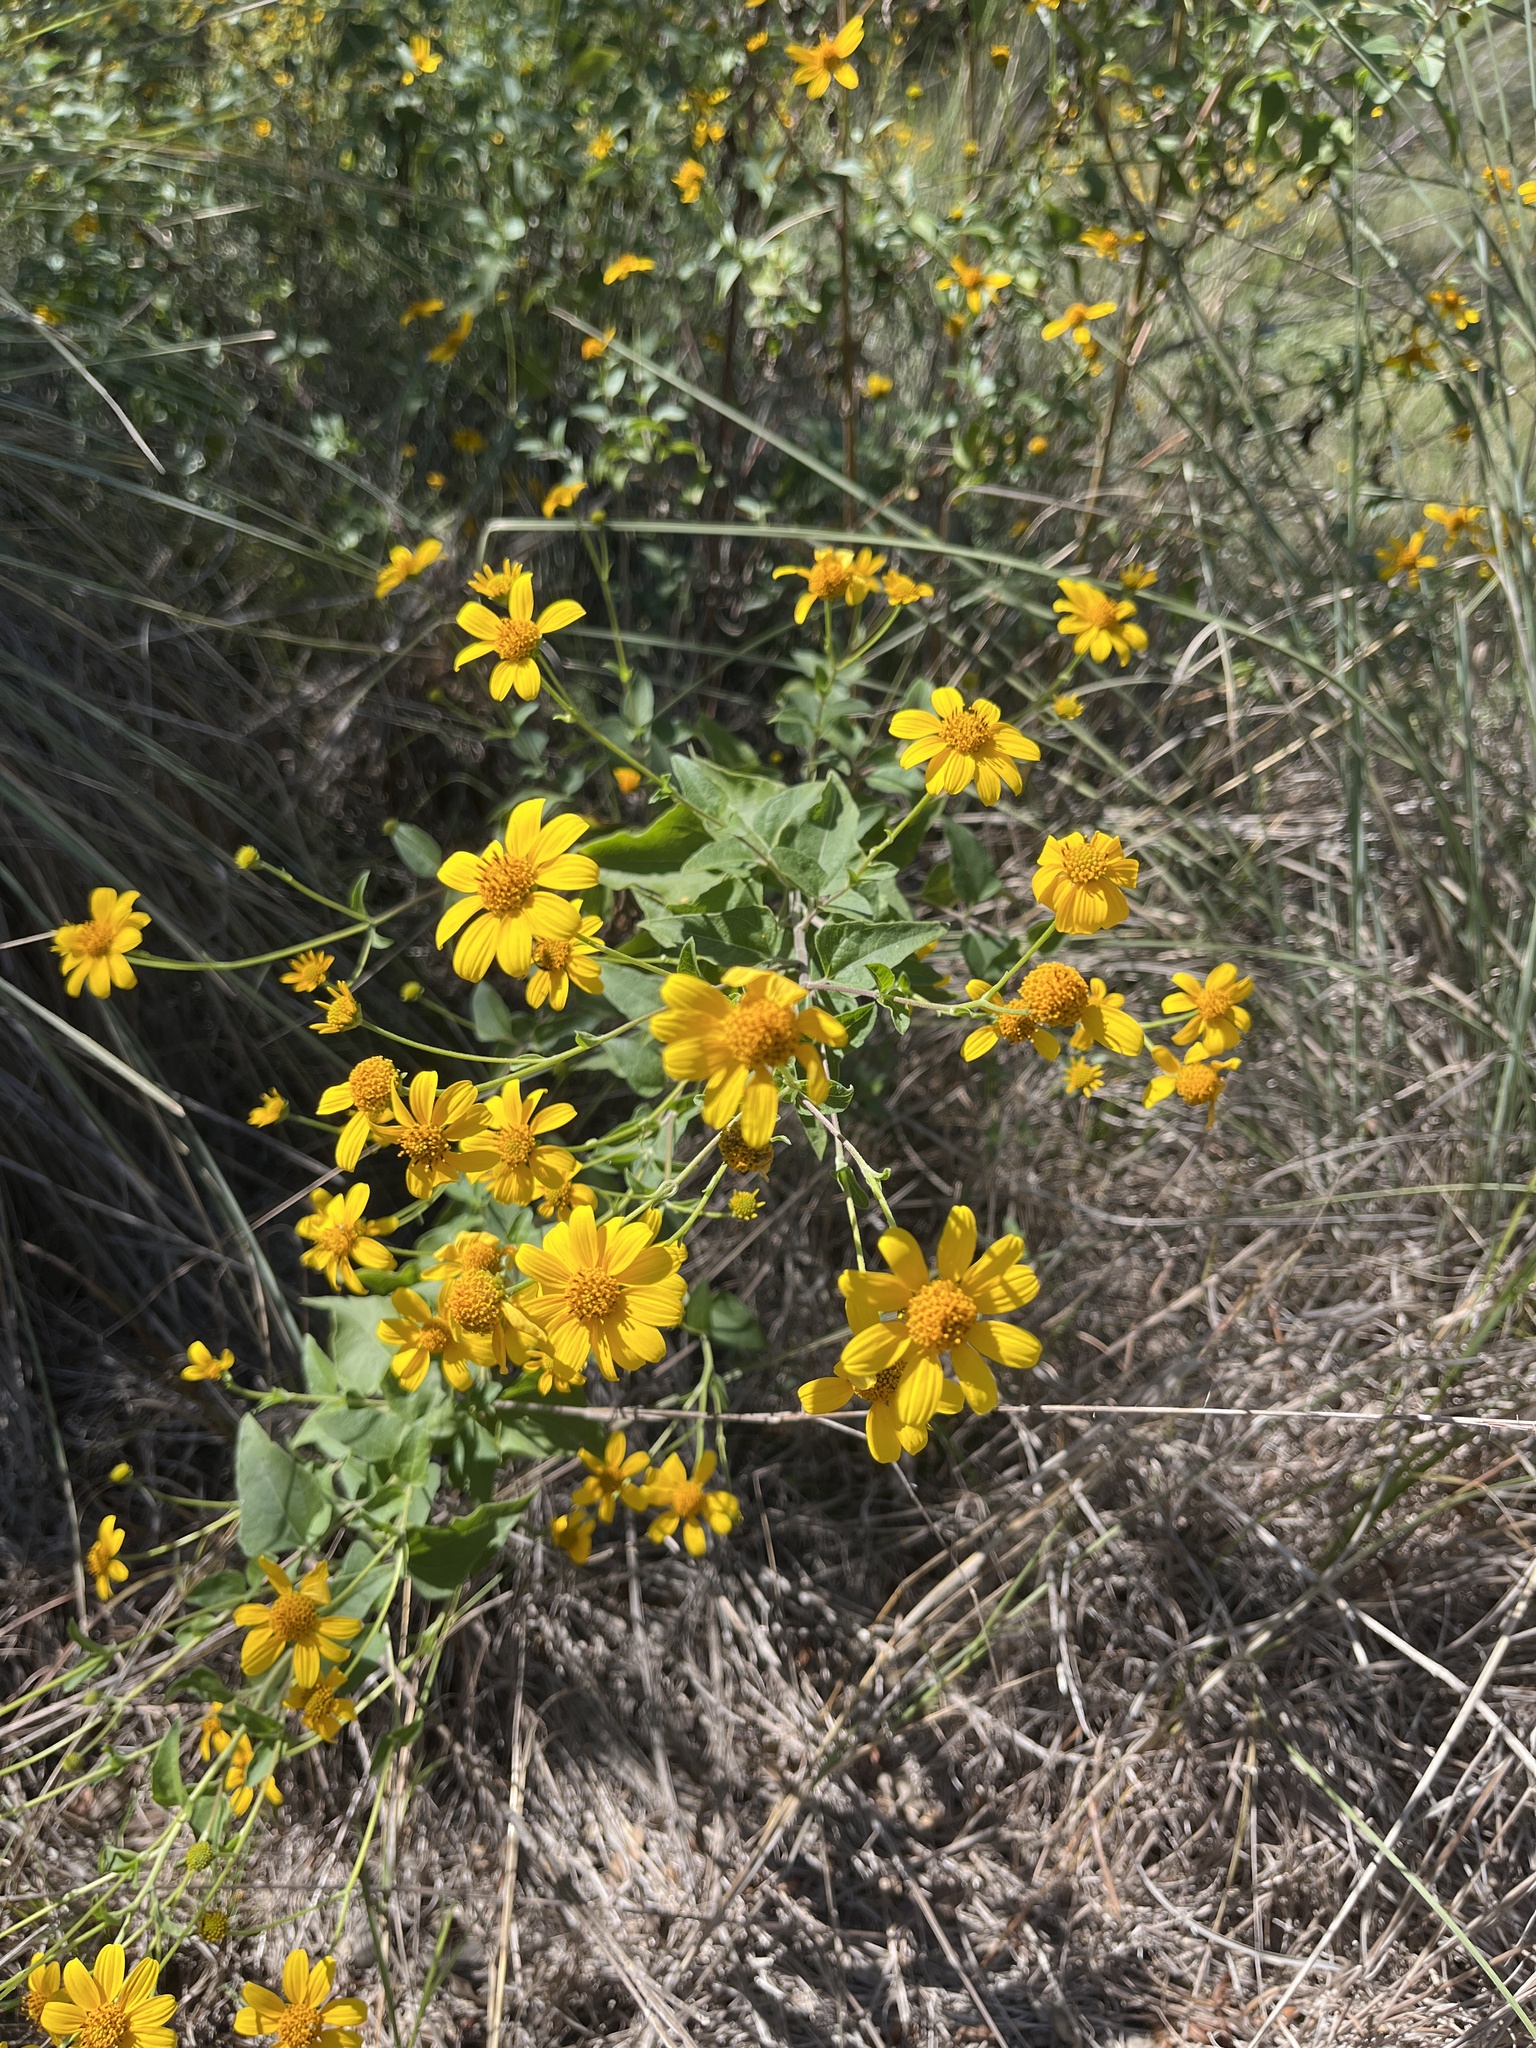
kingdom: Plantae
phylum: Tracheophyta
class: Magnoliopsida
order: Asterales
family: Asteraceae
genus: Viguiera
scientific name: Viguiera dentata
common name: Toothleaf
